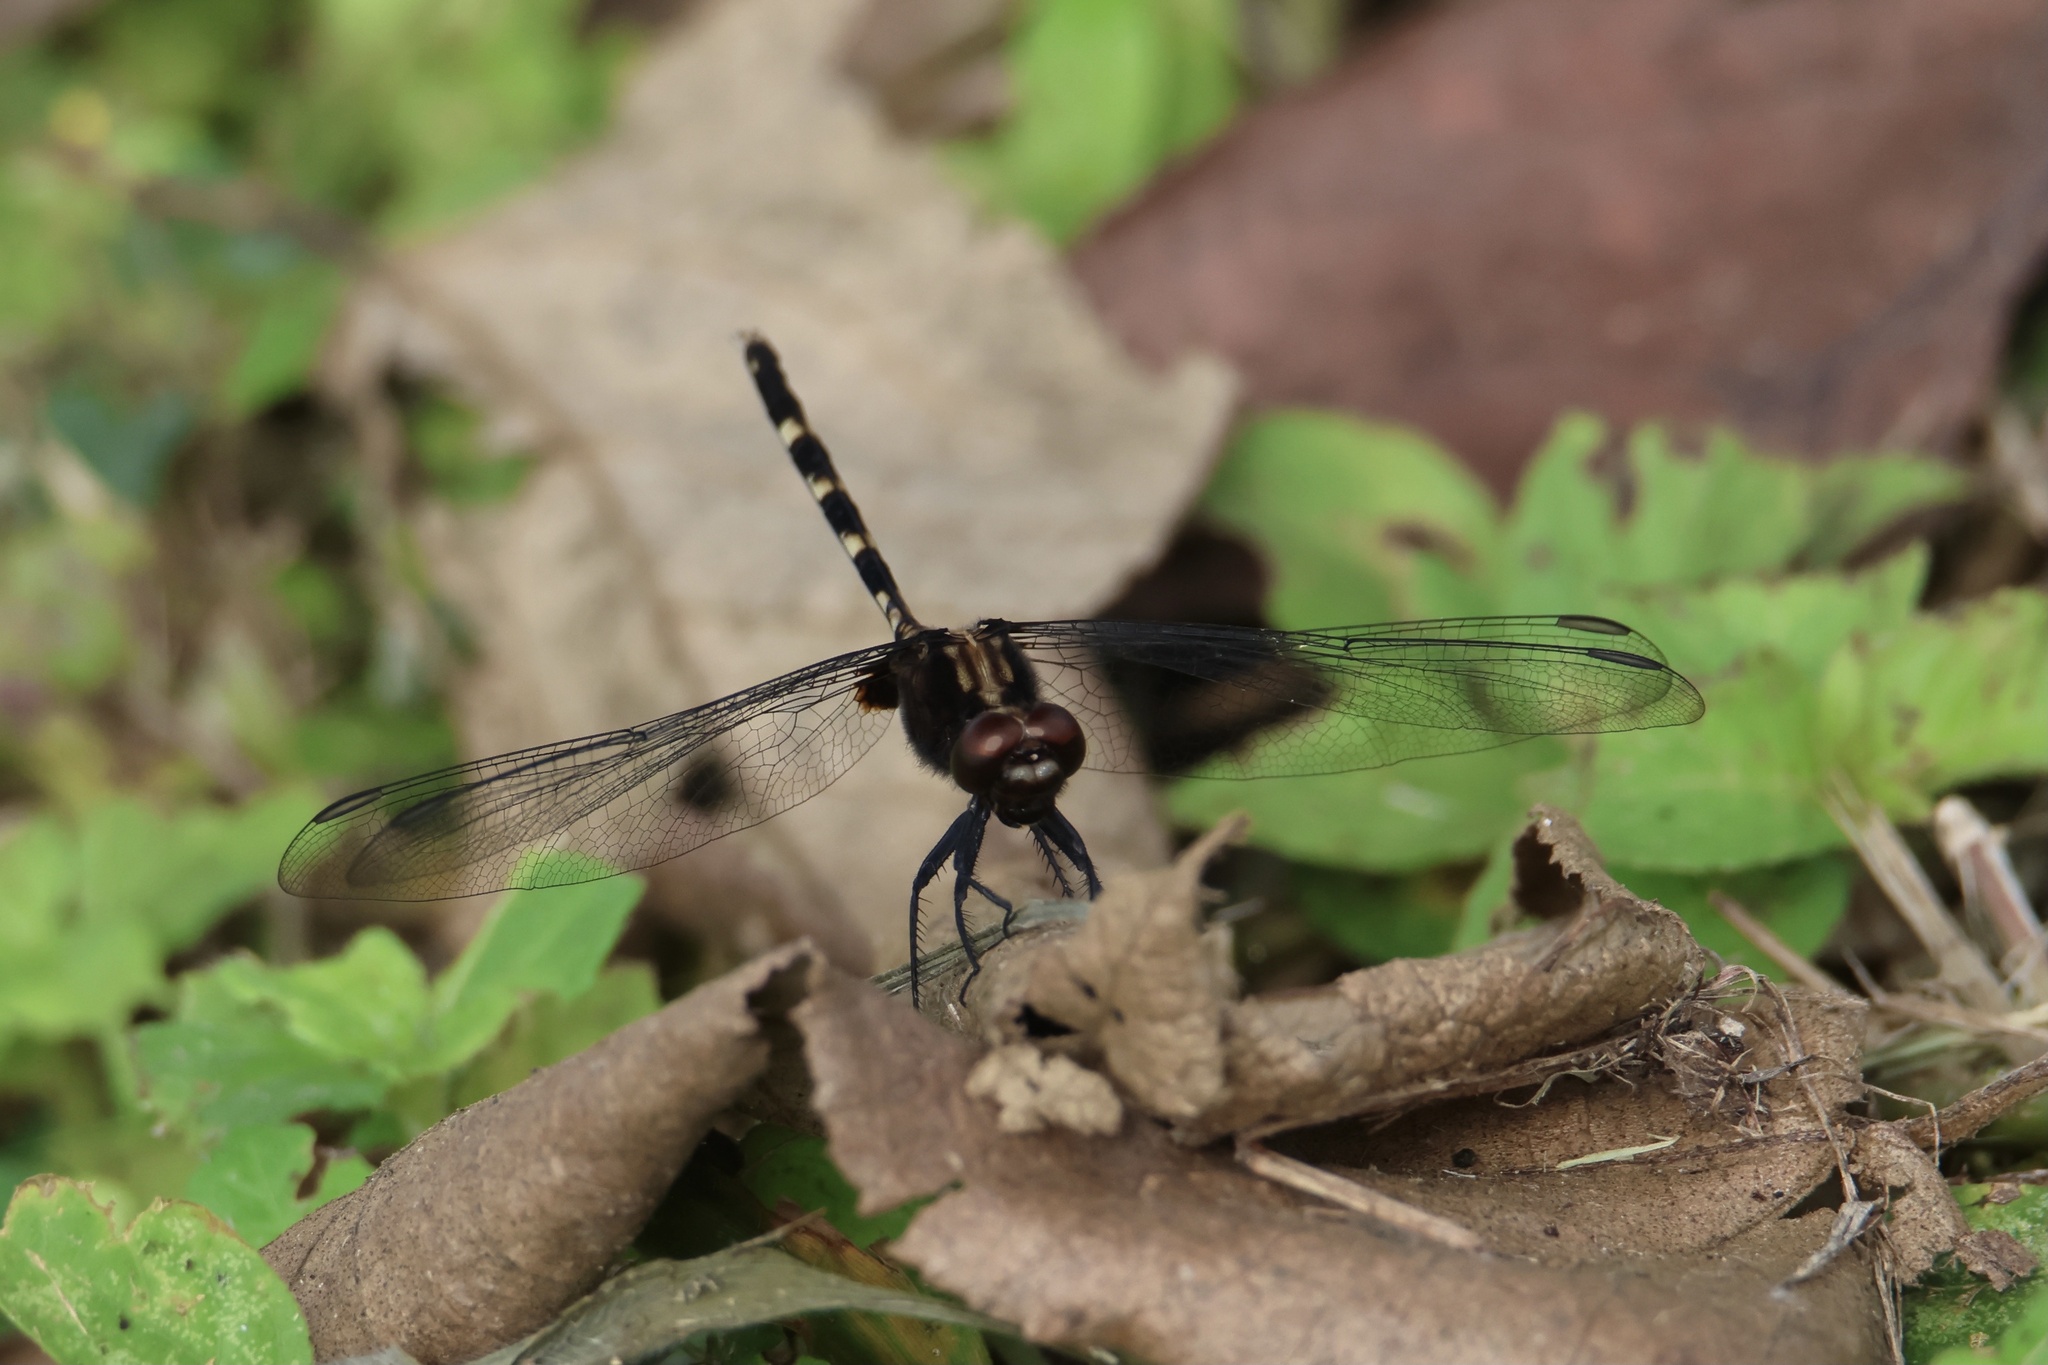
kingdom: Animalia
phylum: Arthropoda
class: Insecta
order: Odonata
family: Libellulidae
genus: Erythemis
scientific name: Erythemis plebeja
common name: Pin-tailed pondhawk
